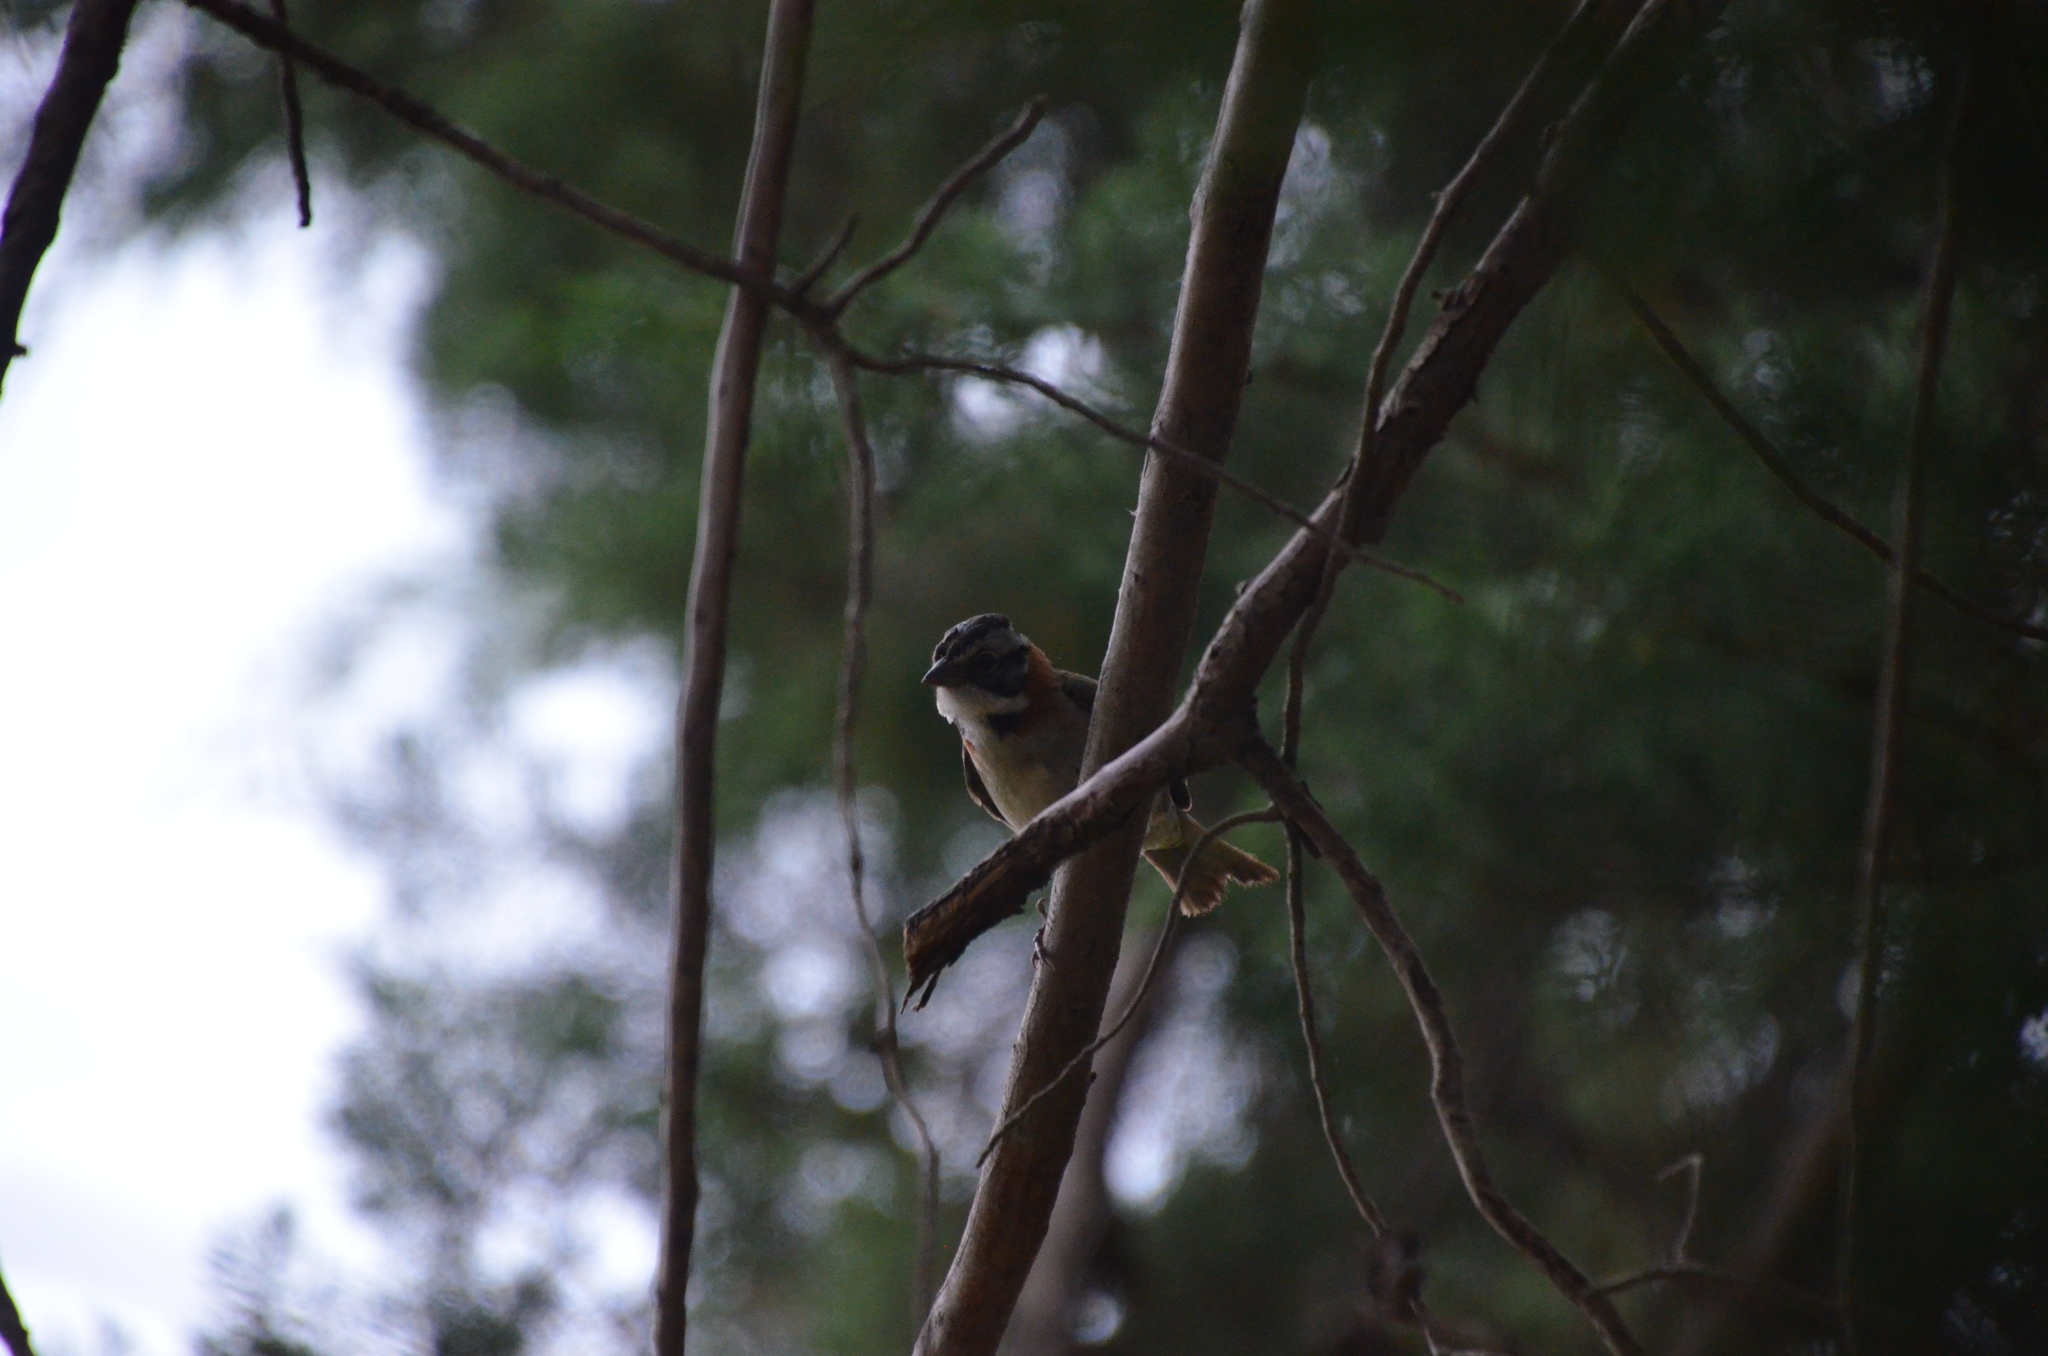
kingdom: Animalia
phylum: Chordata
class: Aves
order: Passeriformes
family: Passerellidae
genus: Zonotrichia
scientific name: Zonotrichia capensis
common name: Rufous-collared sparrow
